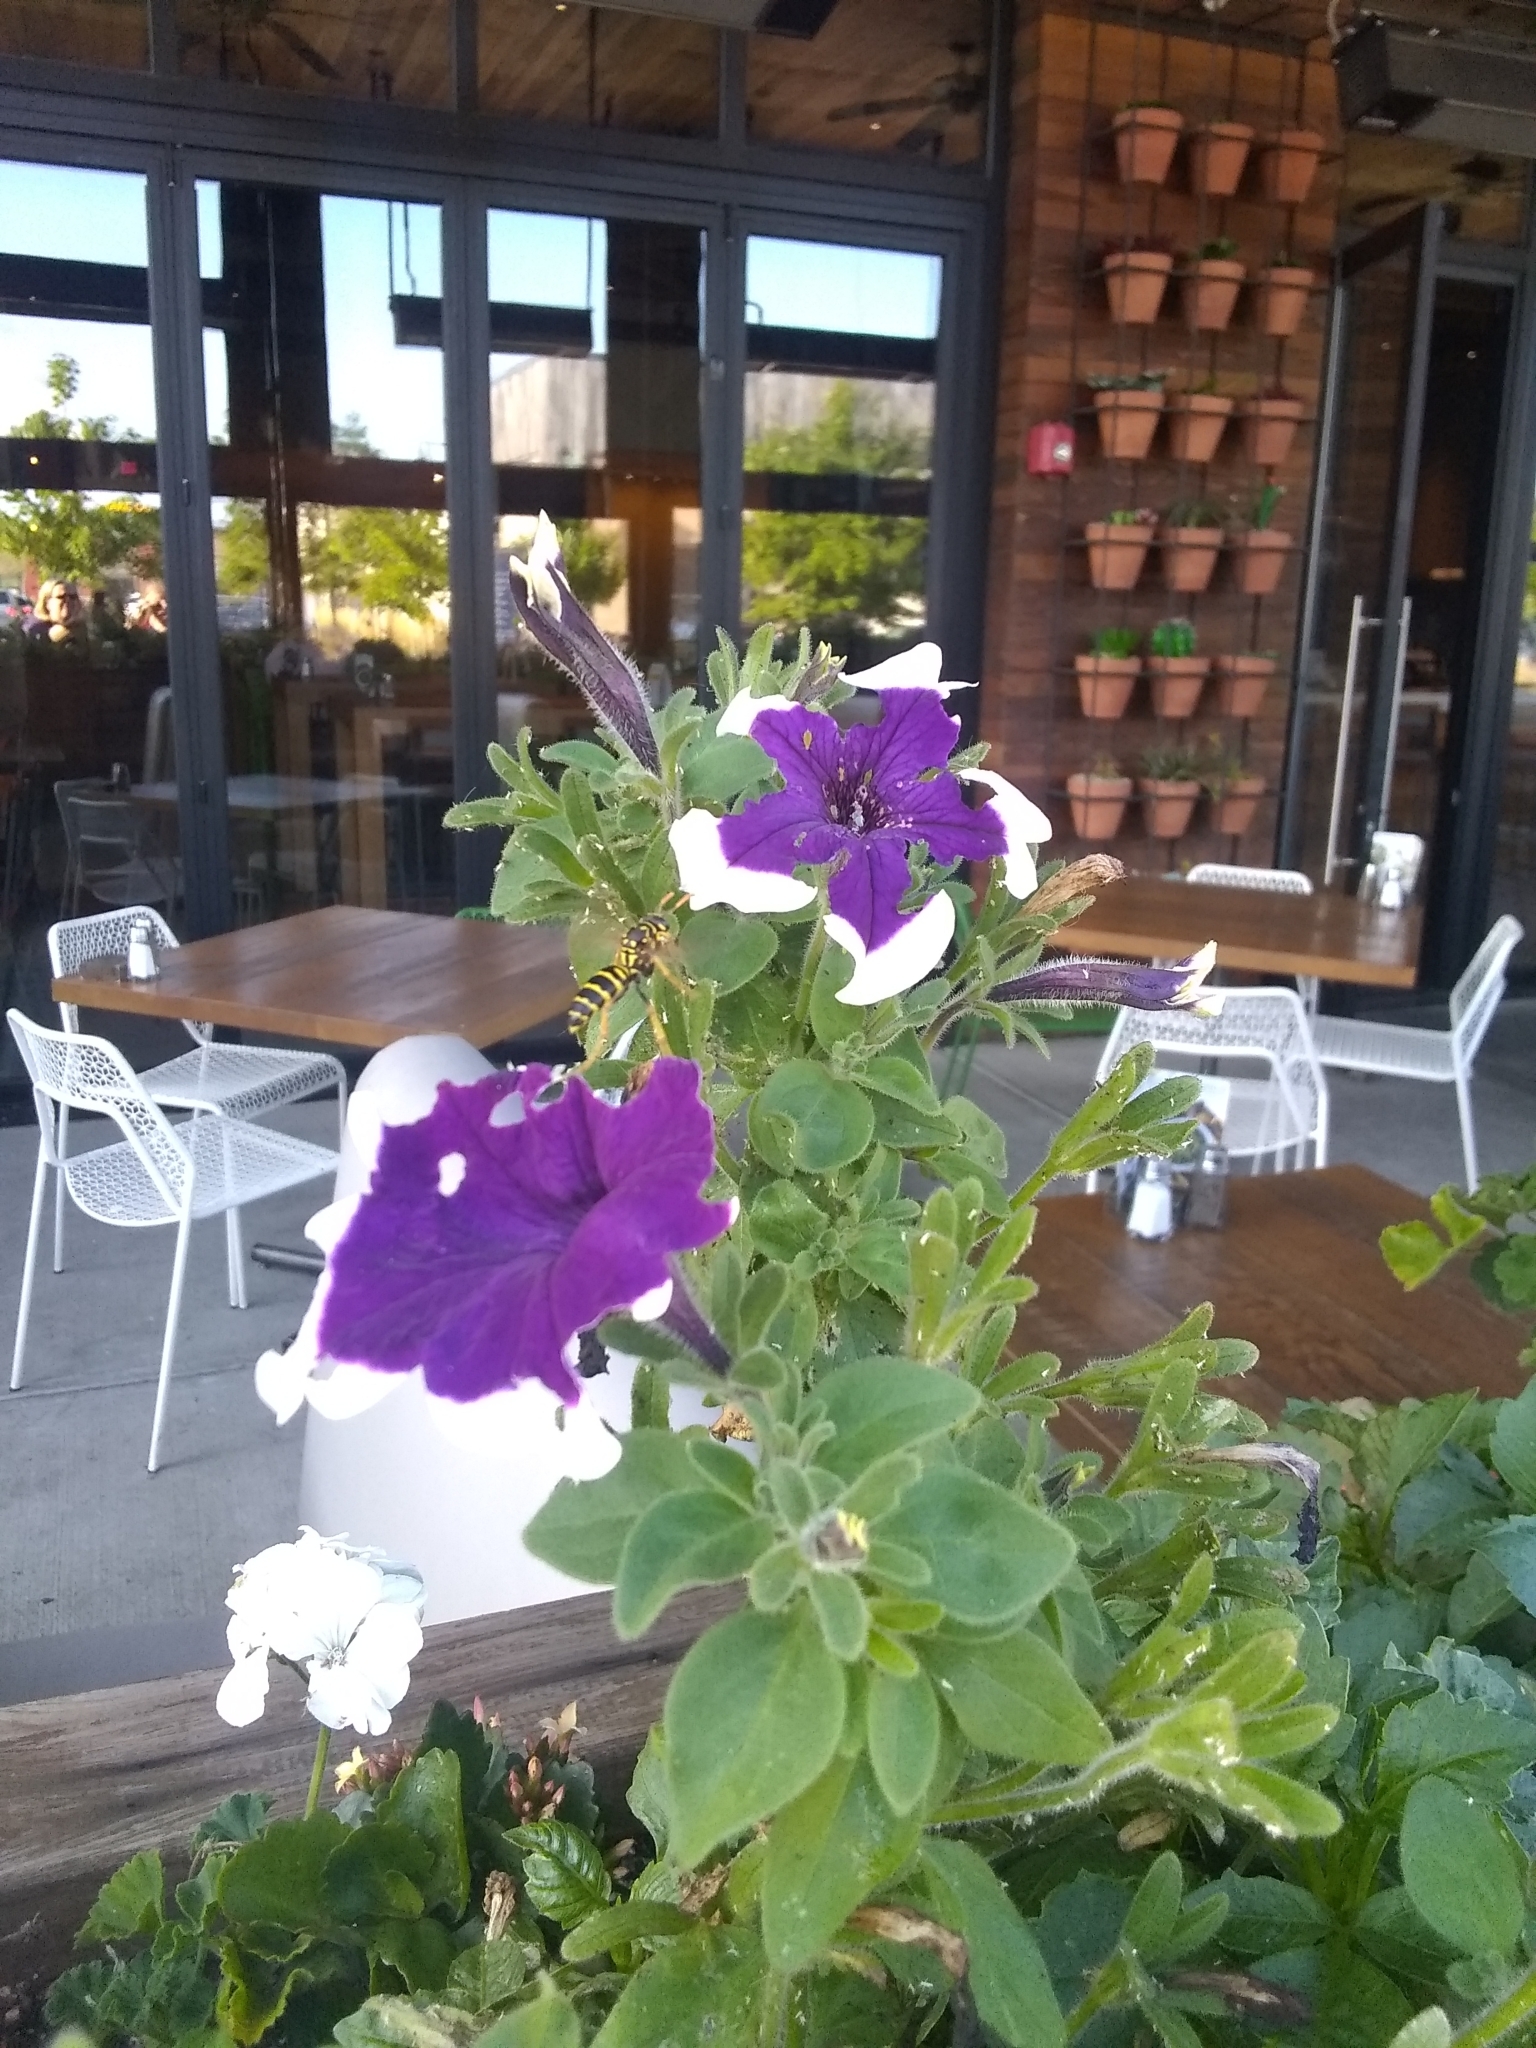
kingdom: Animalia
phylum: Arthropoda
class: Insecta
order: Hymenoptera
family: Eumenidae
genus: Polistes
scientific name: Polistes dominula
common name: Paper wasp
